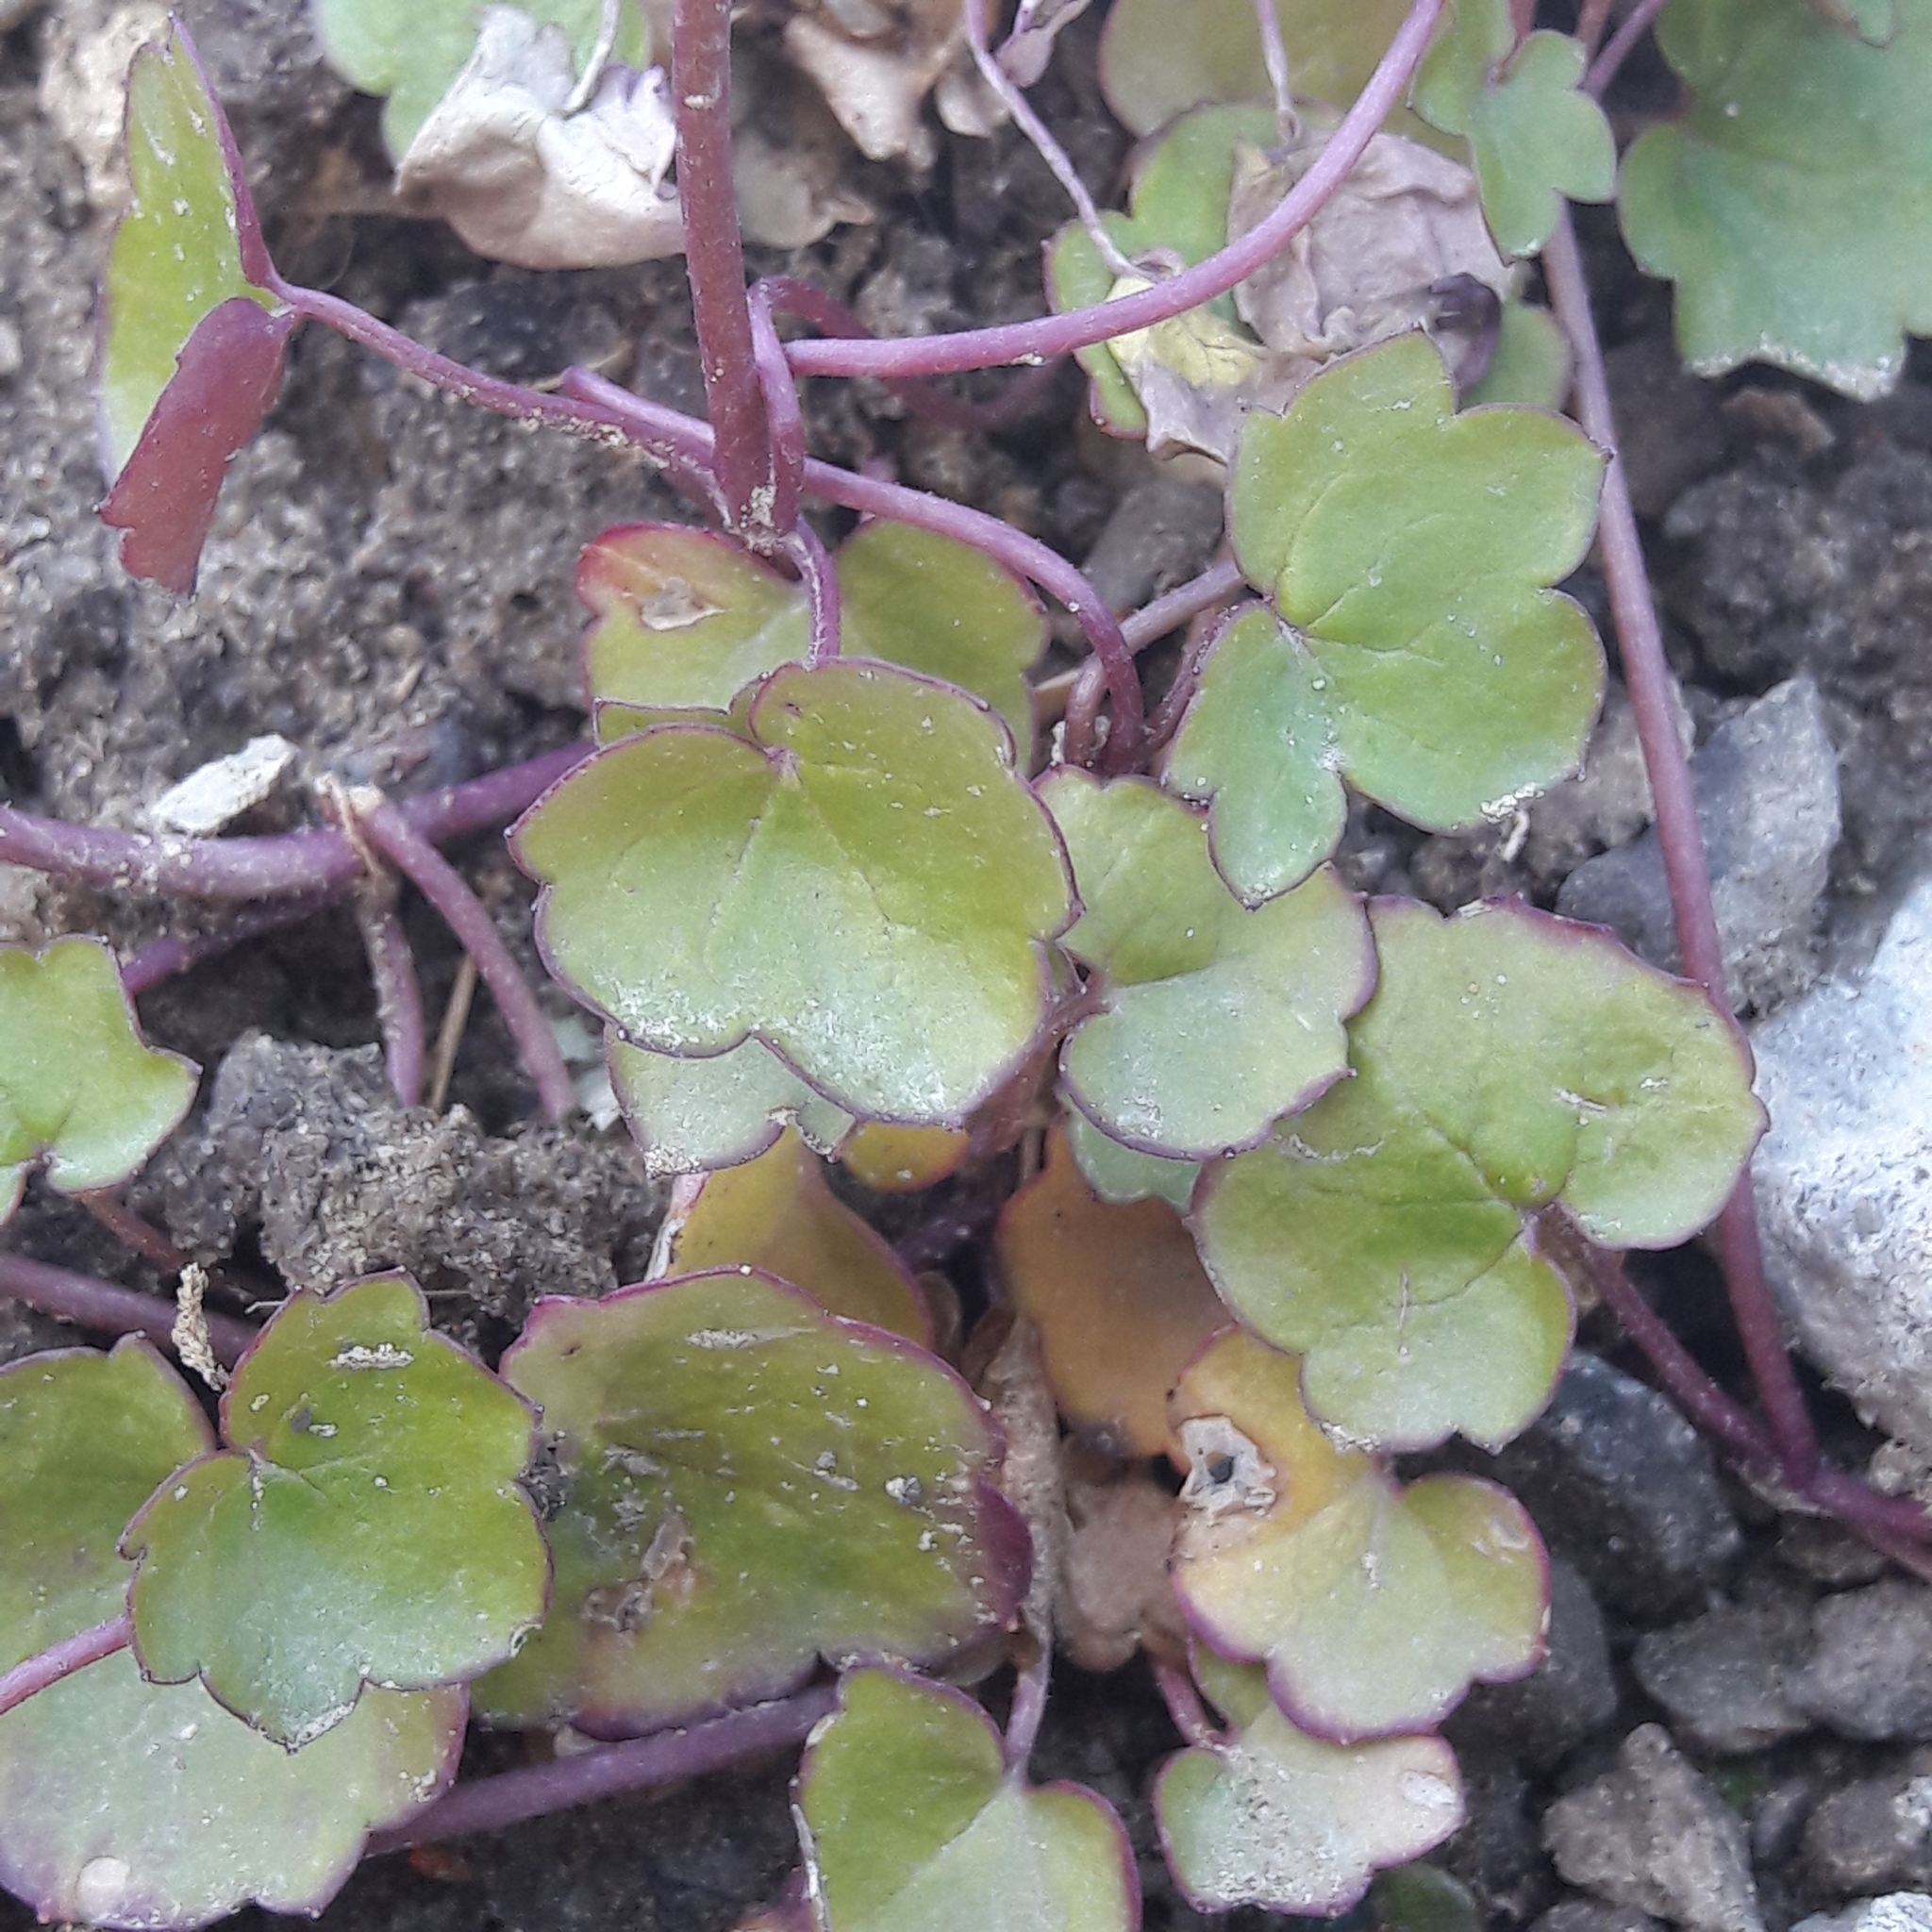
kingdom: Plantae
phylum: Tracheophyta
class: Magnoliopsida
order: Lamiales
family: Plantaginaceae
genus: Cymbalaria
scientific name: Cymbalaria muralis
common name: Ivy-leaved toadflax
